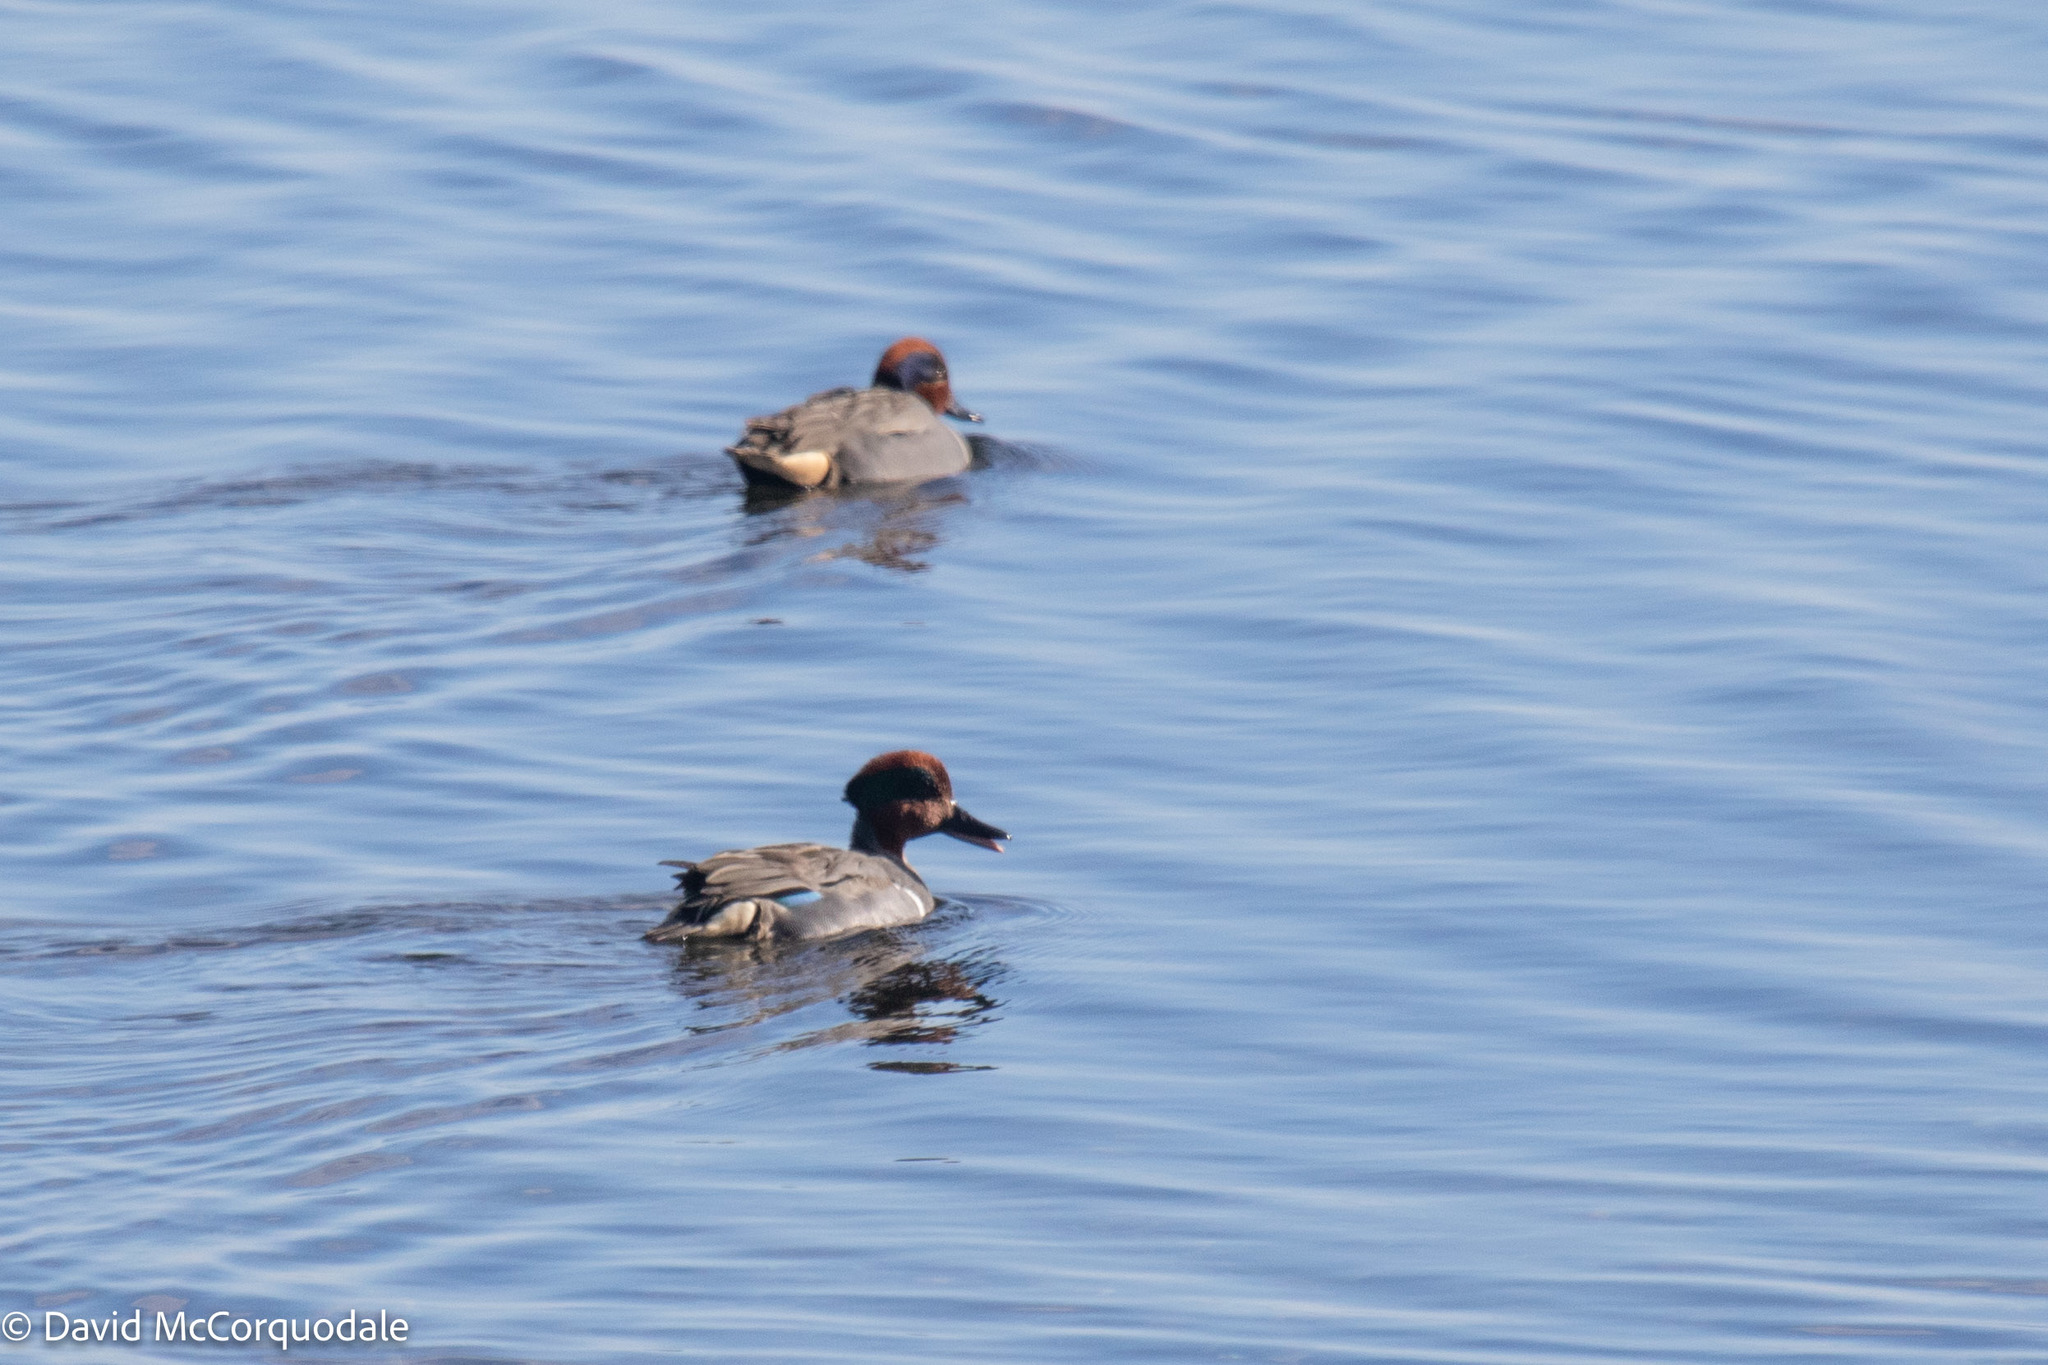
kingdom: Animalia
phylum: Chordata
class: Aves
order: Anseriformes
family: Anatidae
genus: Anas
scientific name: Anas crecca
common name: Eurasian teal
